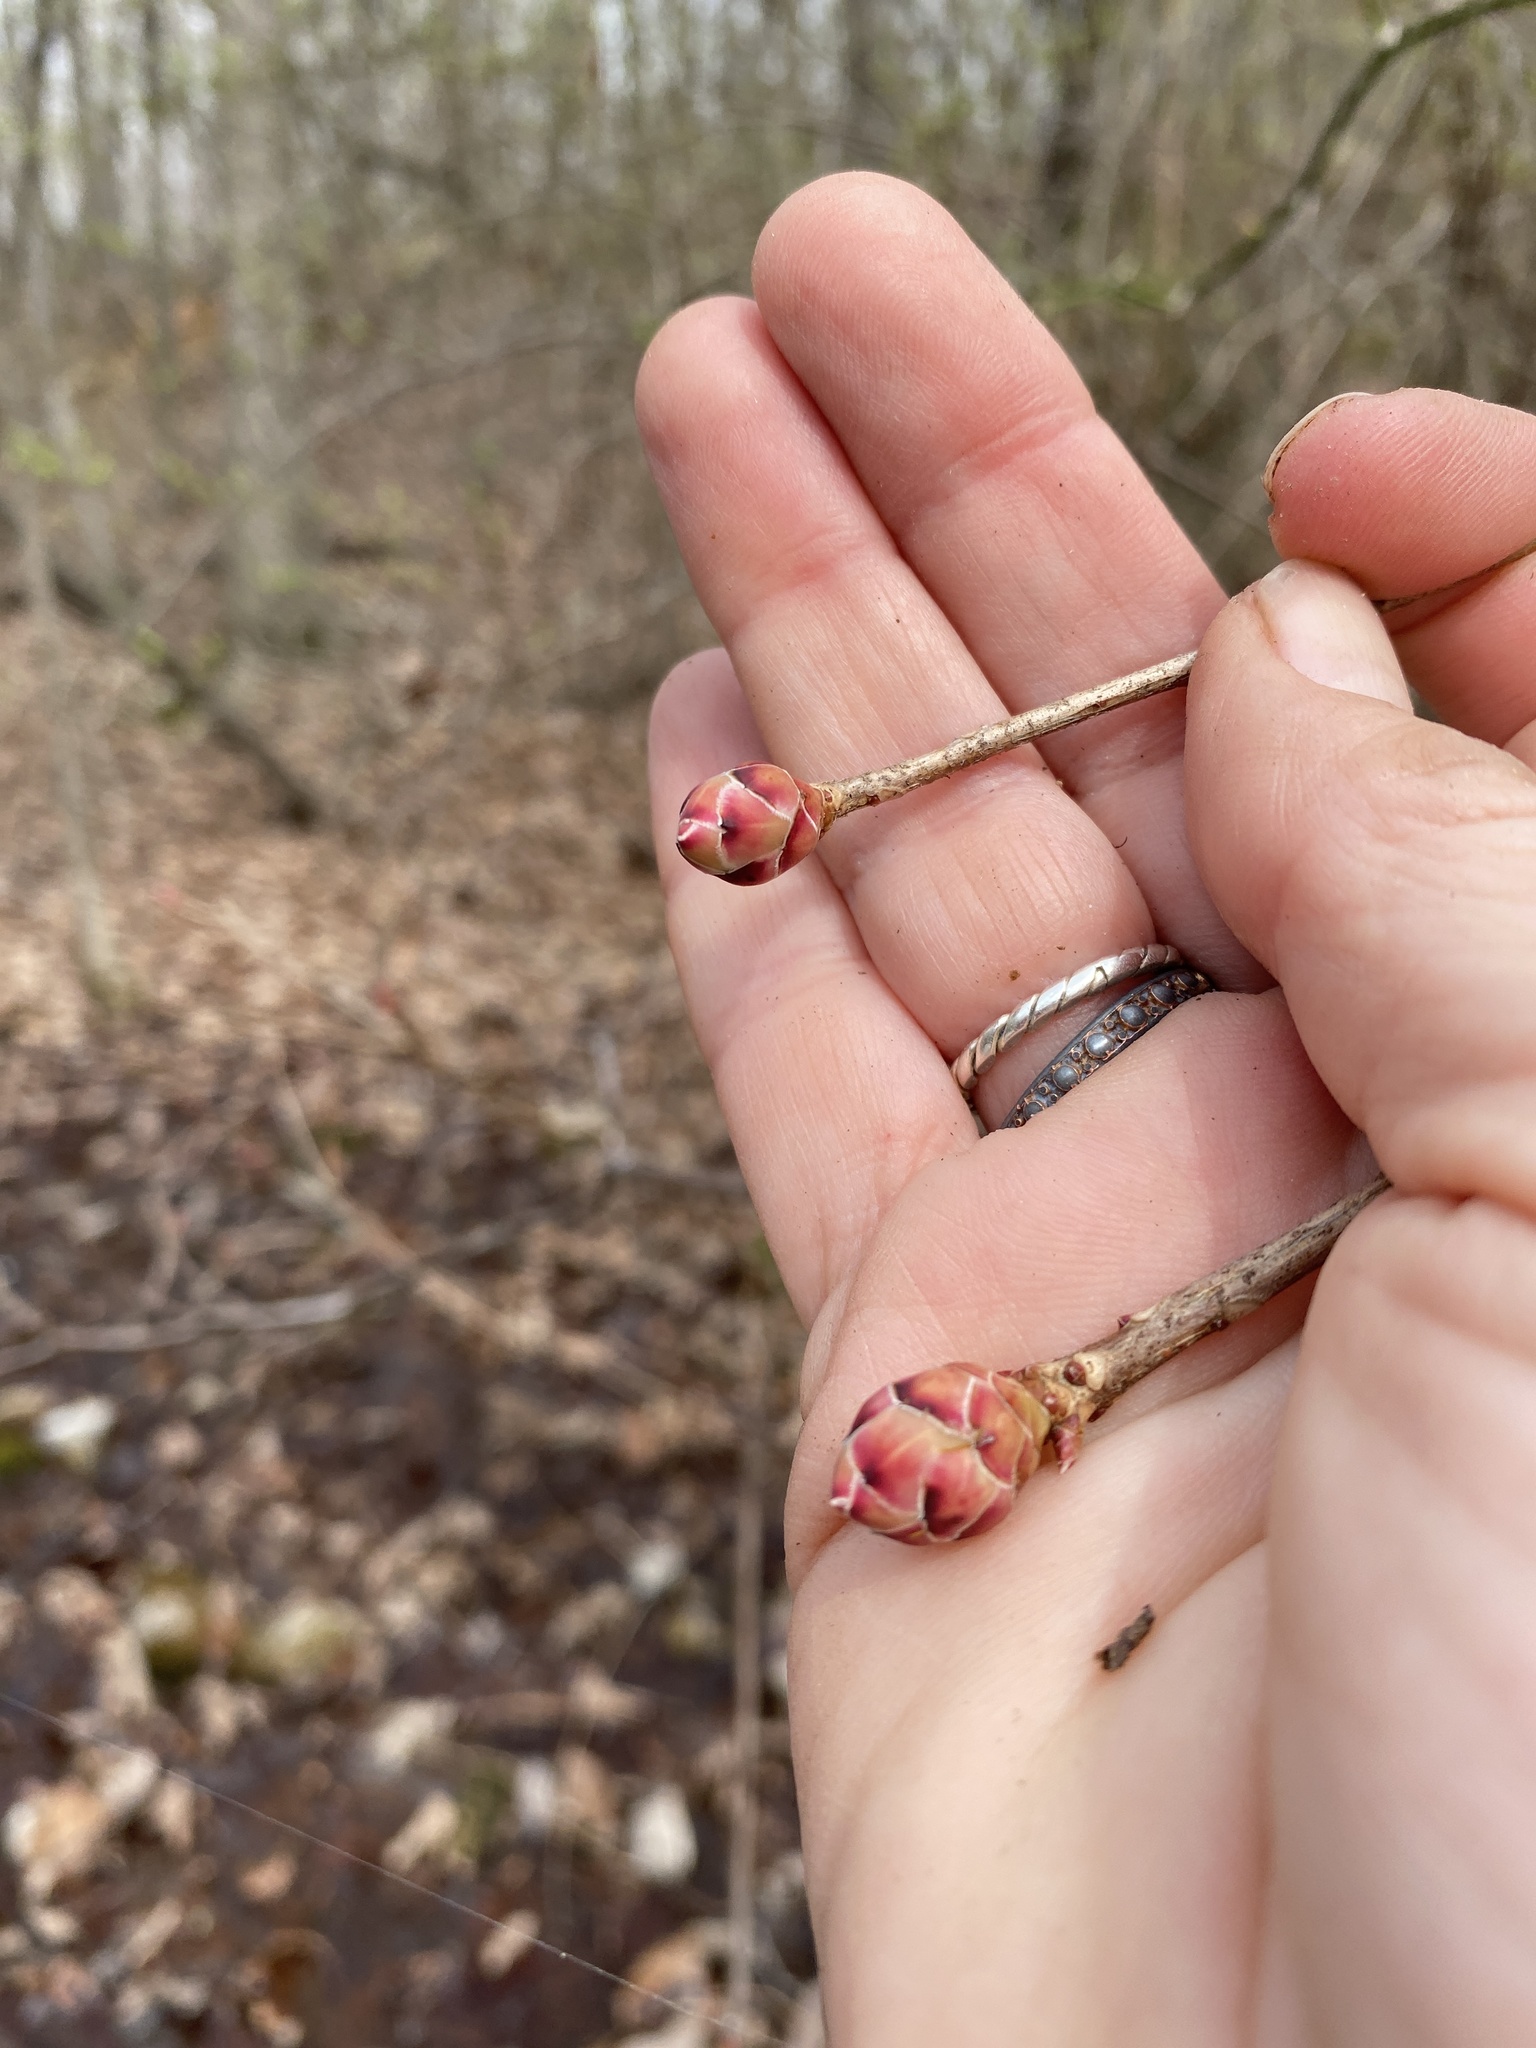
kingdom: Plantae
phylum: Tracheophyta
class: Magnoliopsida
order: Ericales
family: Ericaceae
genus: Rhododendron
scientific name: Rhododendron periclymenoides
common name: Election-pink
